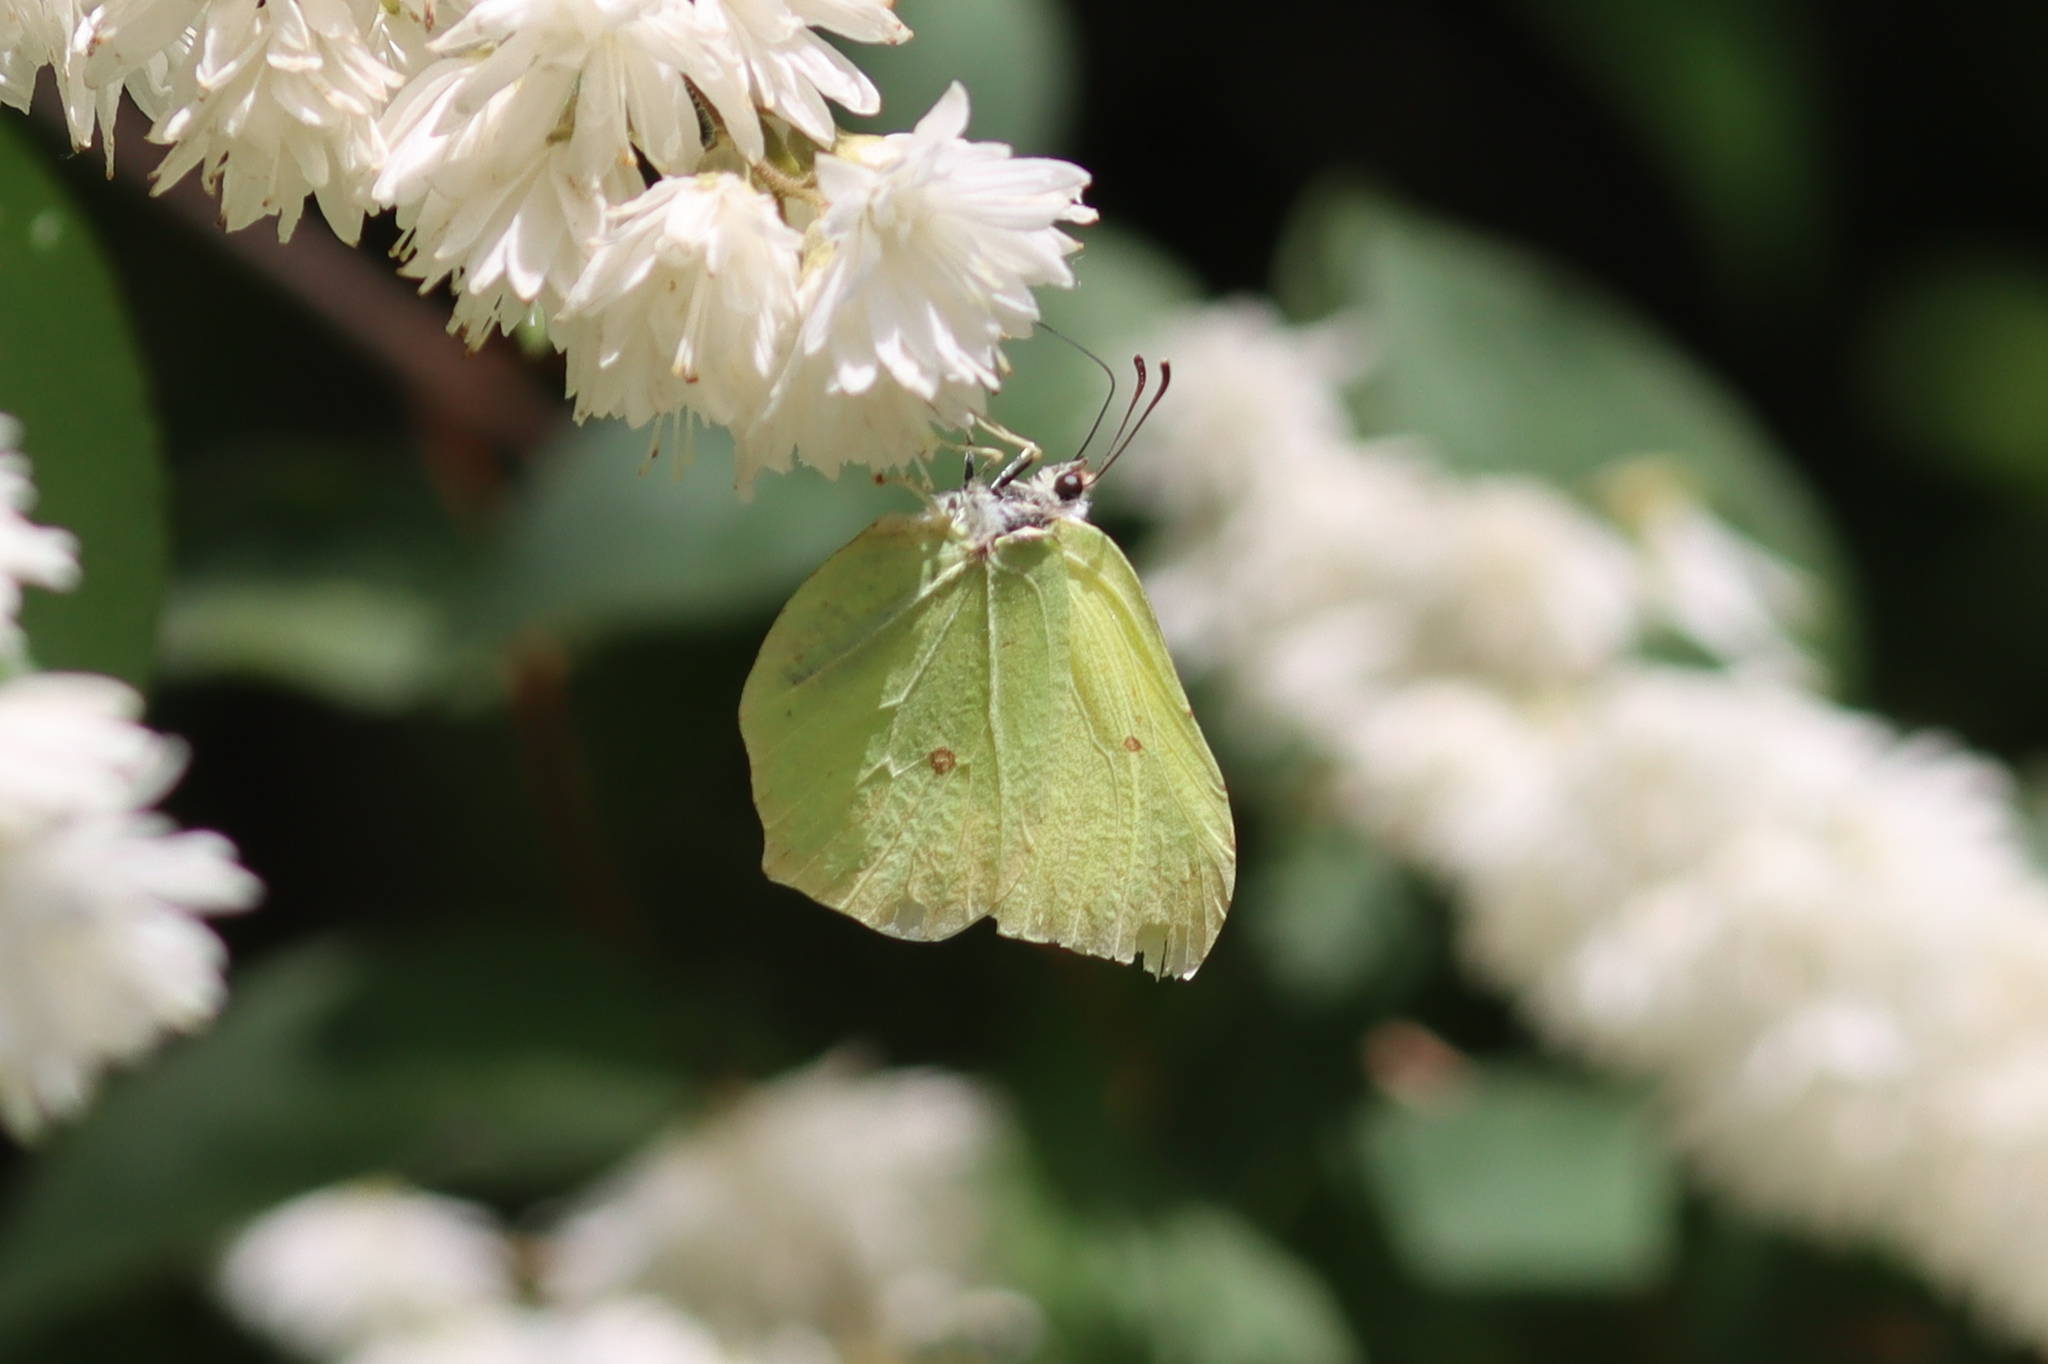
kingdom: Animalia
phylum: Arthropoda
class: Insecta
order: Lepidoptera
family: Pieridae
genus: Gonepteryx
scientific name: Gonepteryx rhamni
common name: Brimstone
